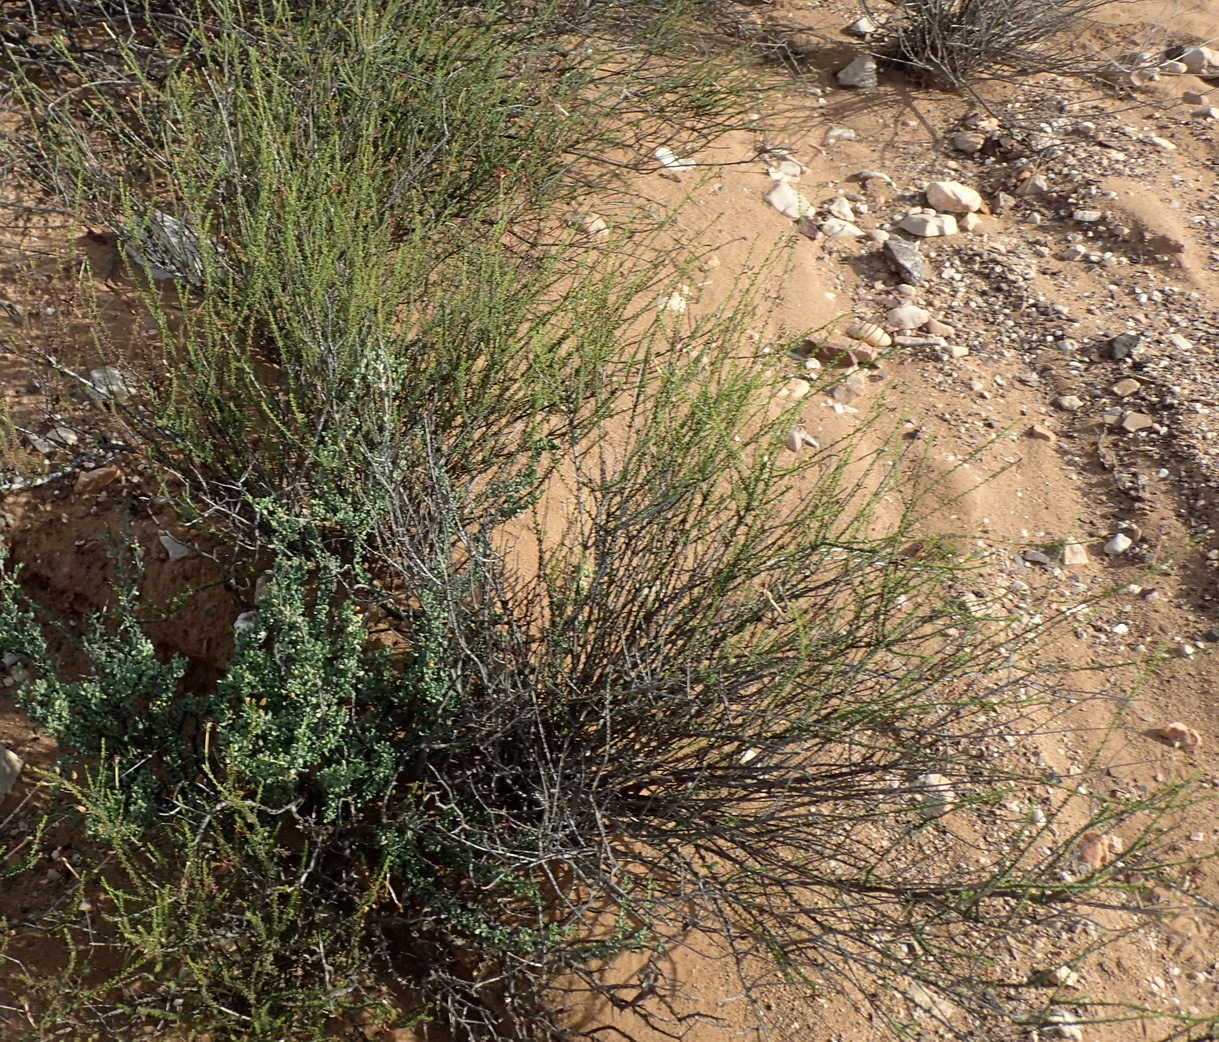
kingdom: Plantae
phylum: Tracheophyta
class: Magnoliopsida
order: Lamiales
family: Scrophulariaceae
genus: Jamesbrittenia
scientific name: Jamesbrittenia atropurpurea
